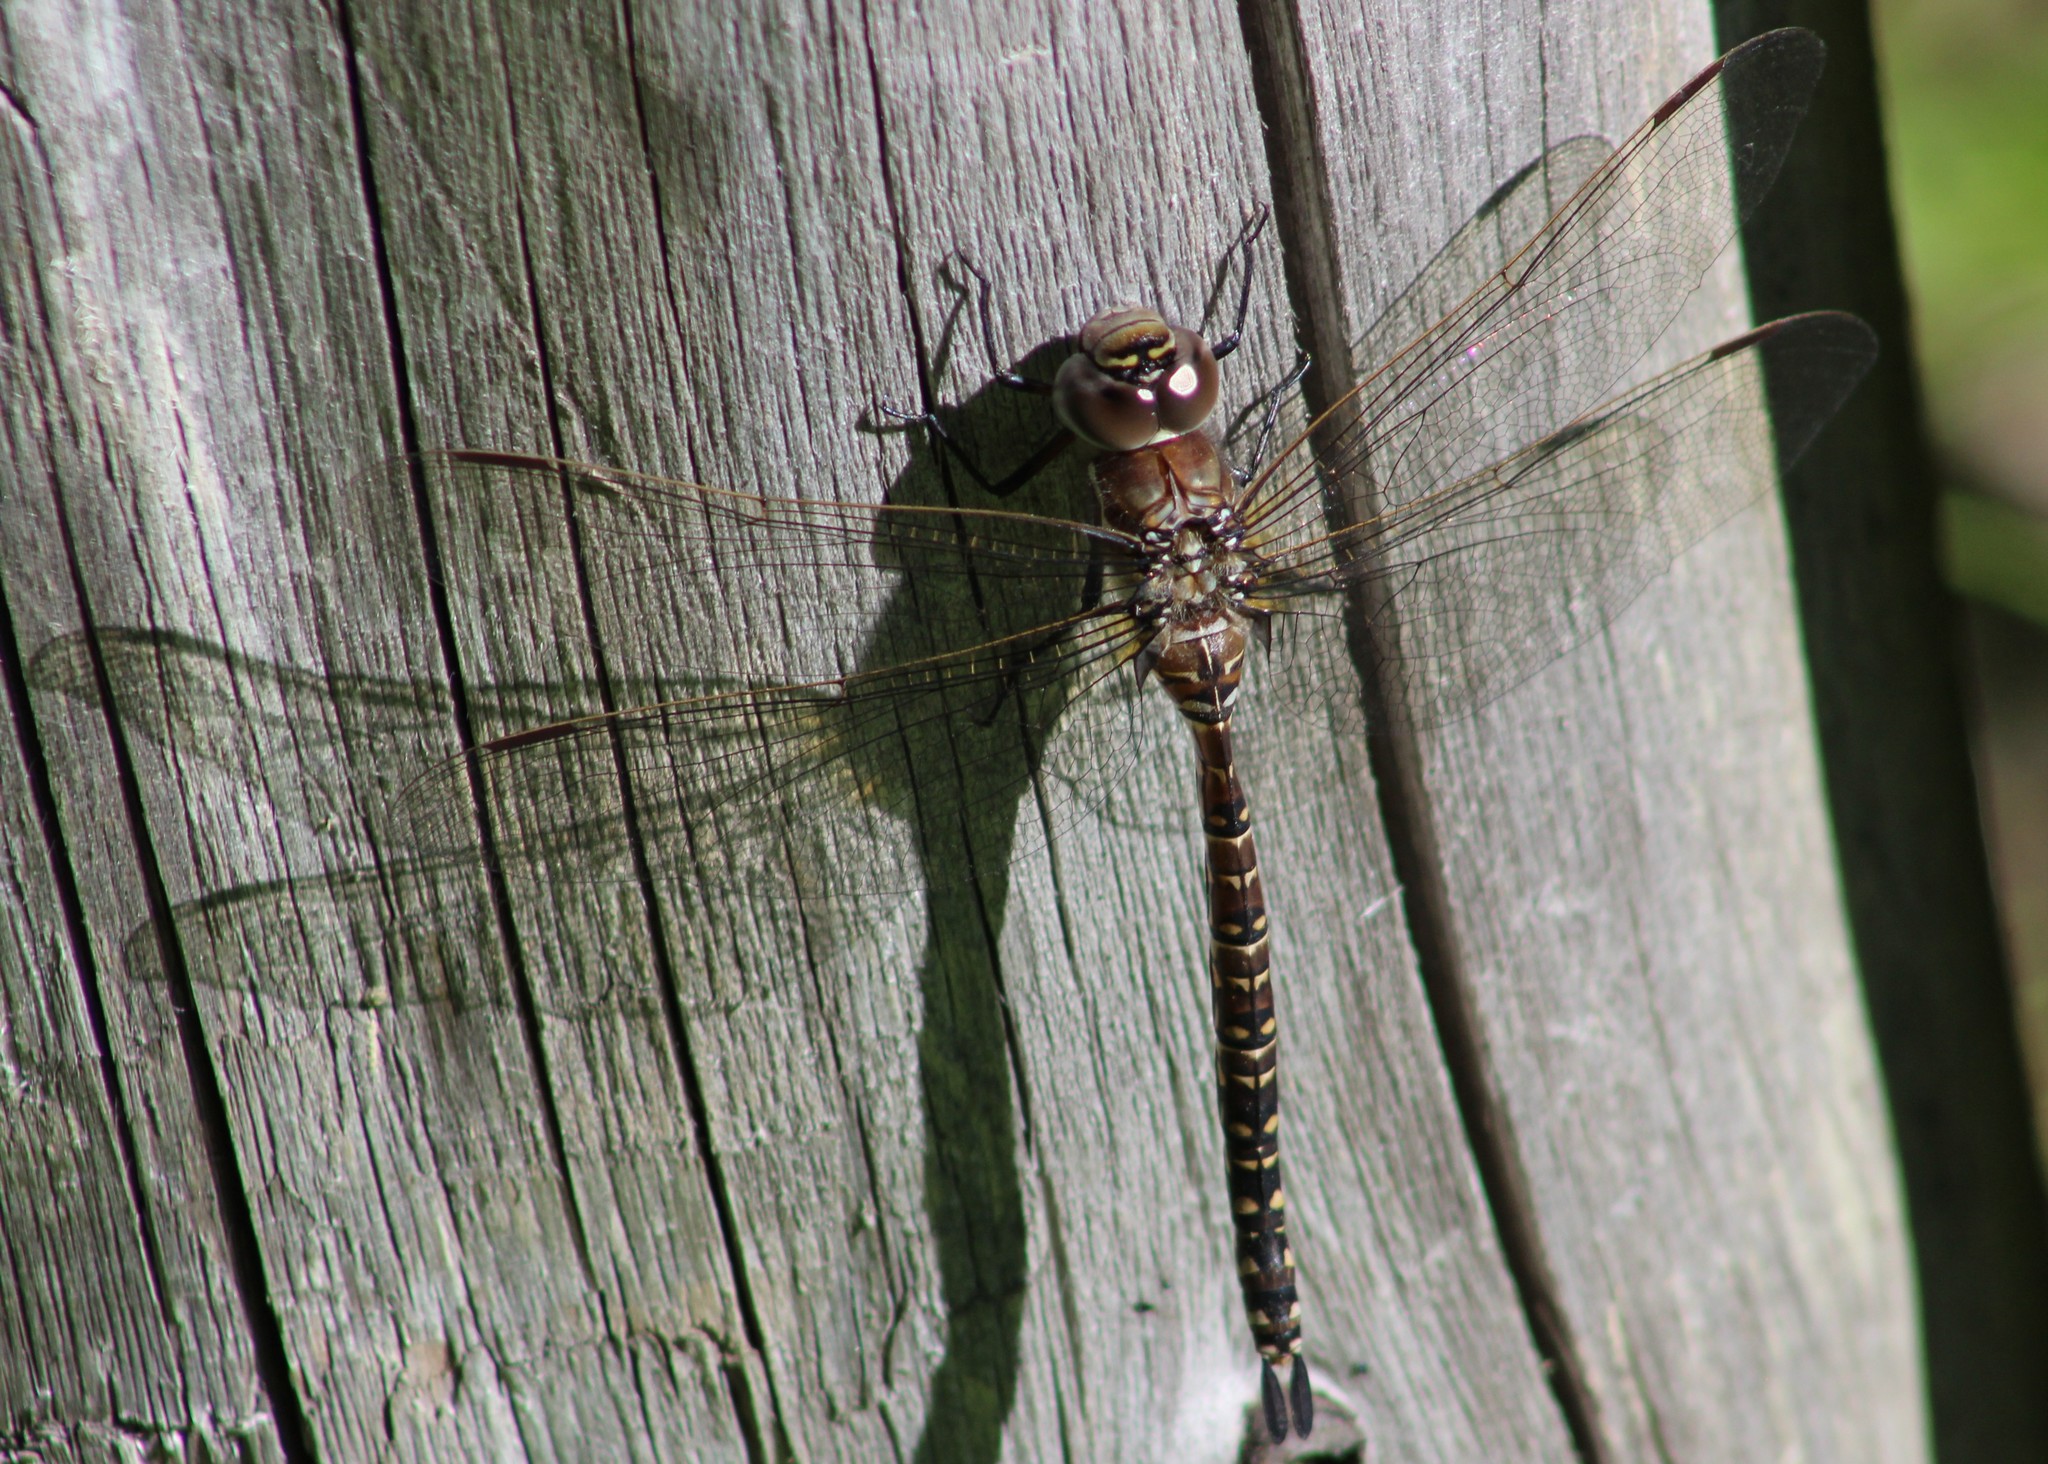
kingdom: Animalia
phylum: Arthropoda
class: Insecta
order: Odonata
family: Aeshnidae
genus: Aeshna
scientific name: Aeshna subarctica
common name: Subarctic darner
